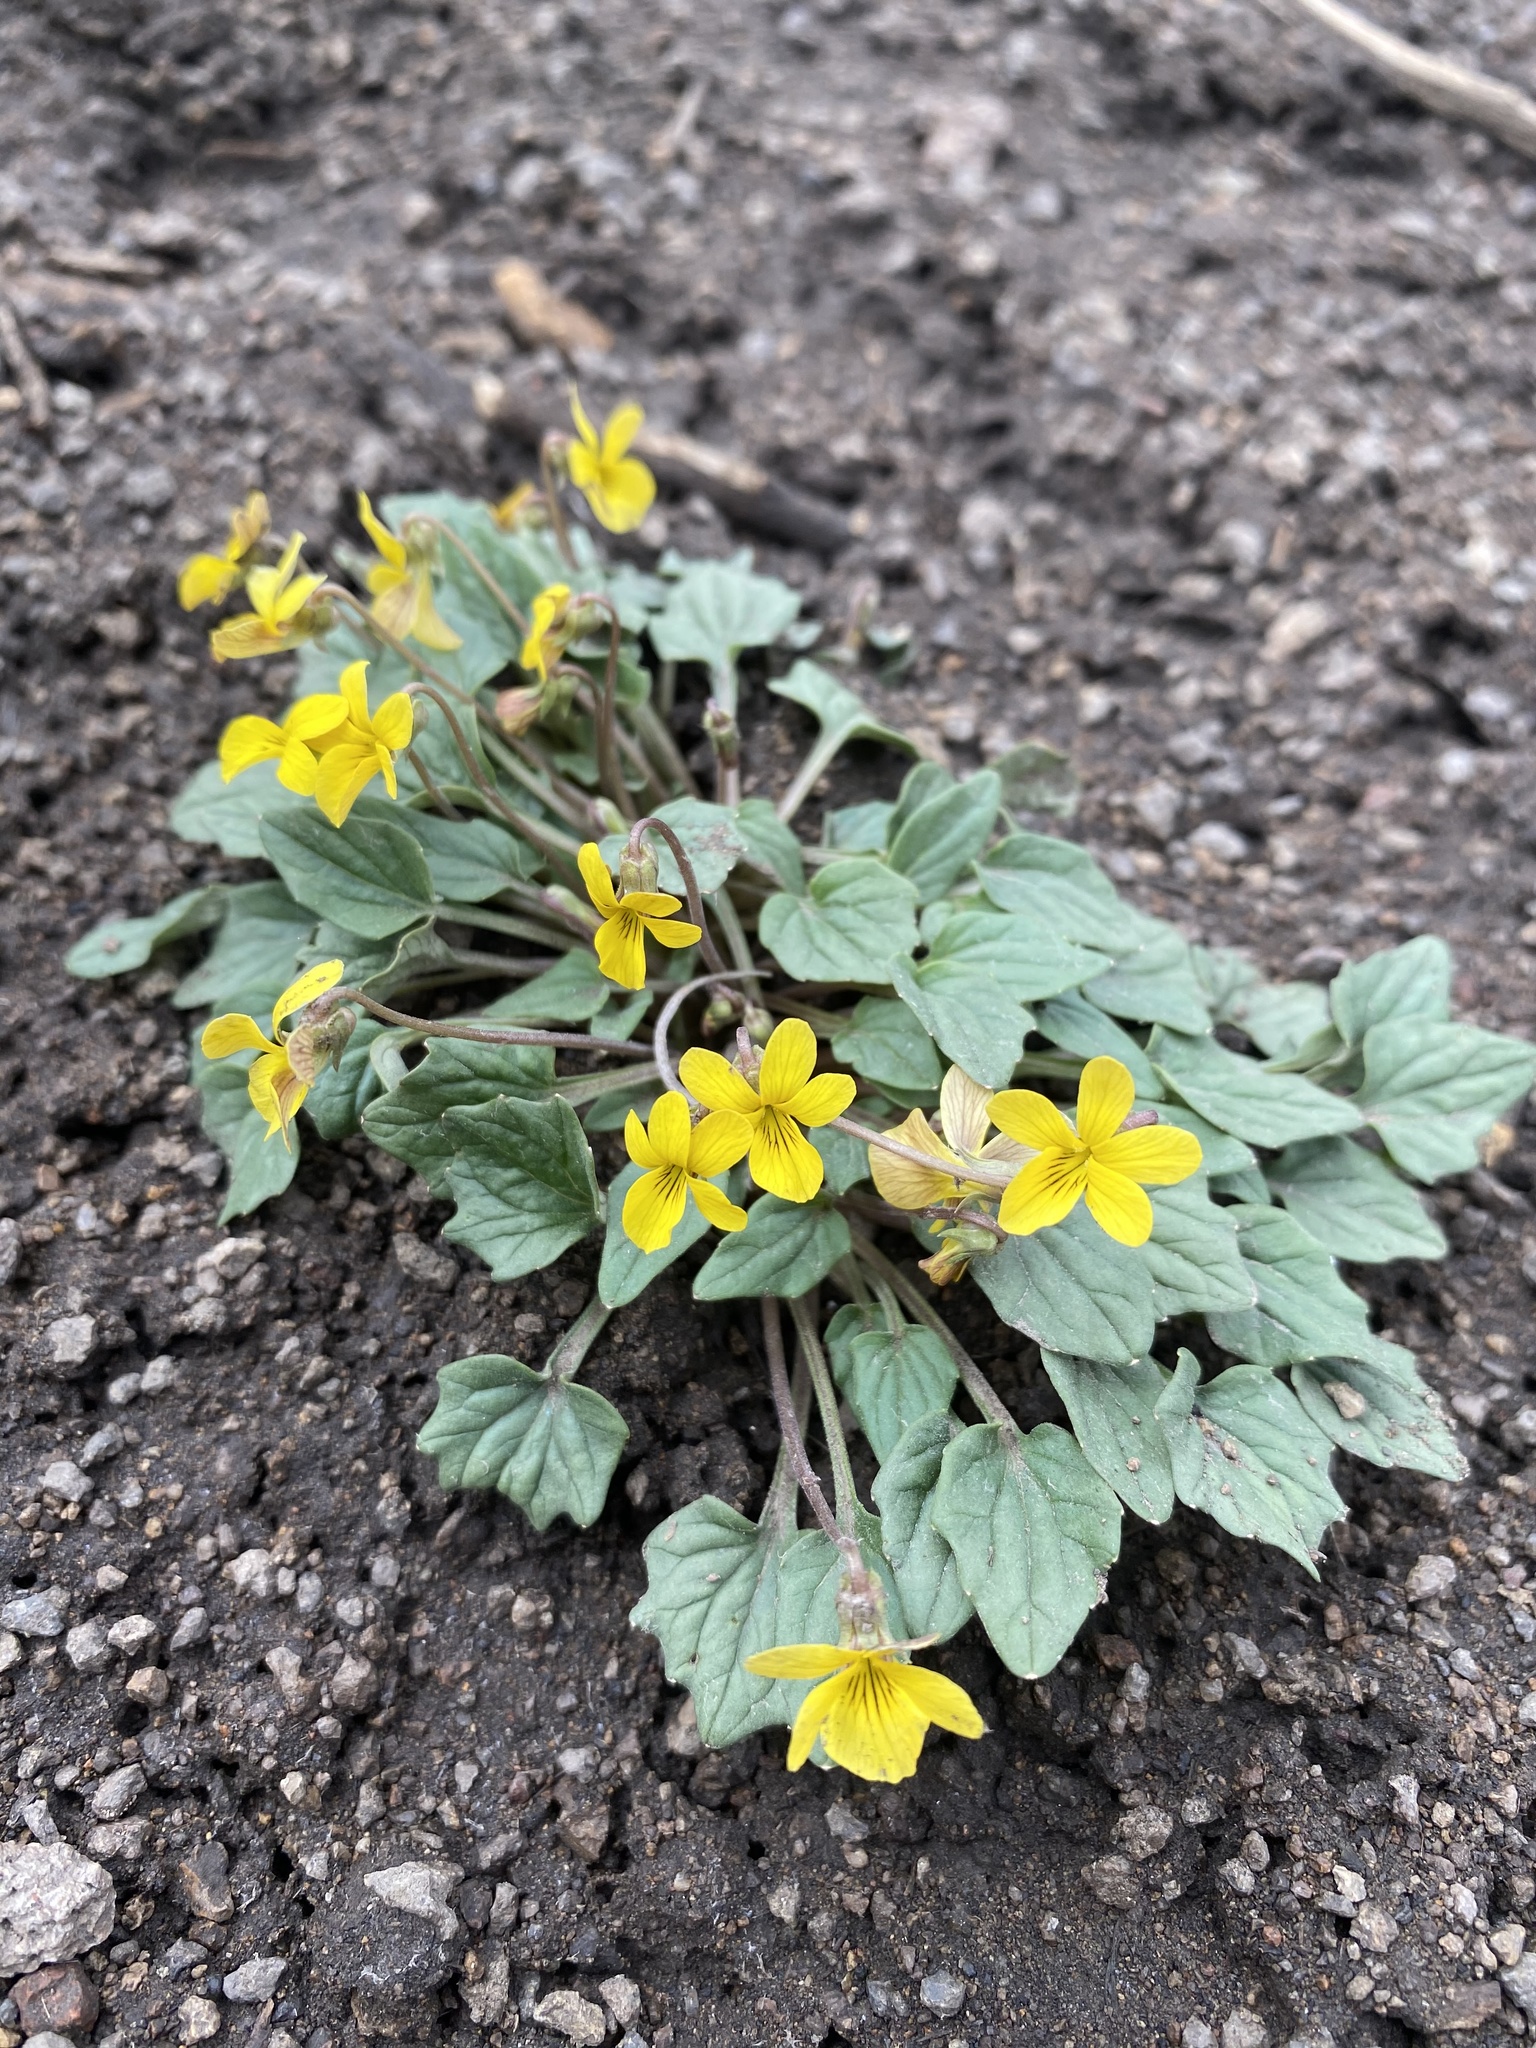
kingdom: Plantae
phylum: Tracheophyta
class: Magnoliopsida
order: Malpighiales
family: Violaceae
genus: Viola
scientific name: Viola purpurea
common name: Pine violet
